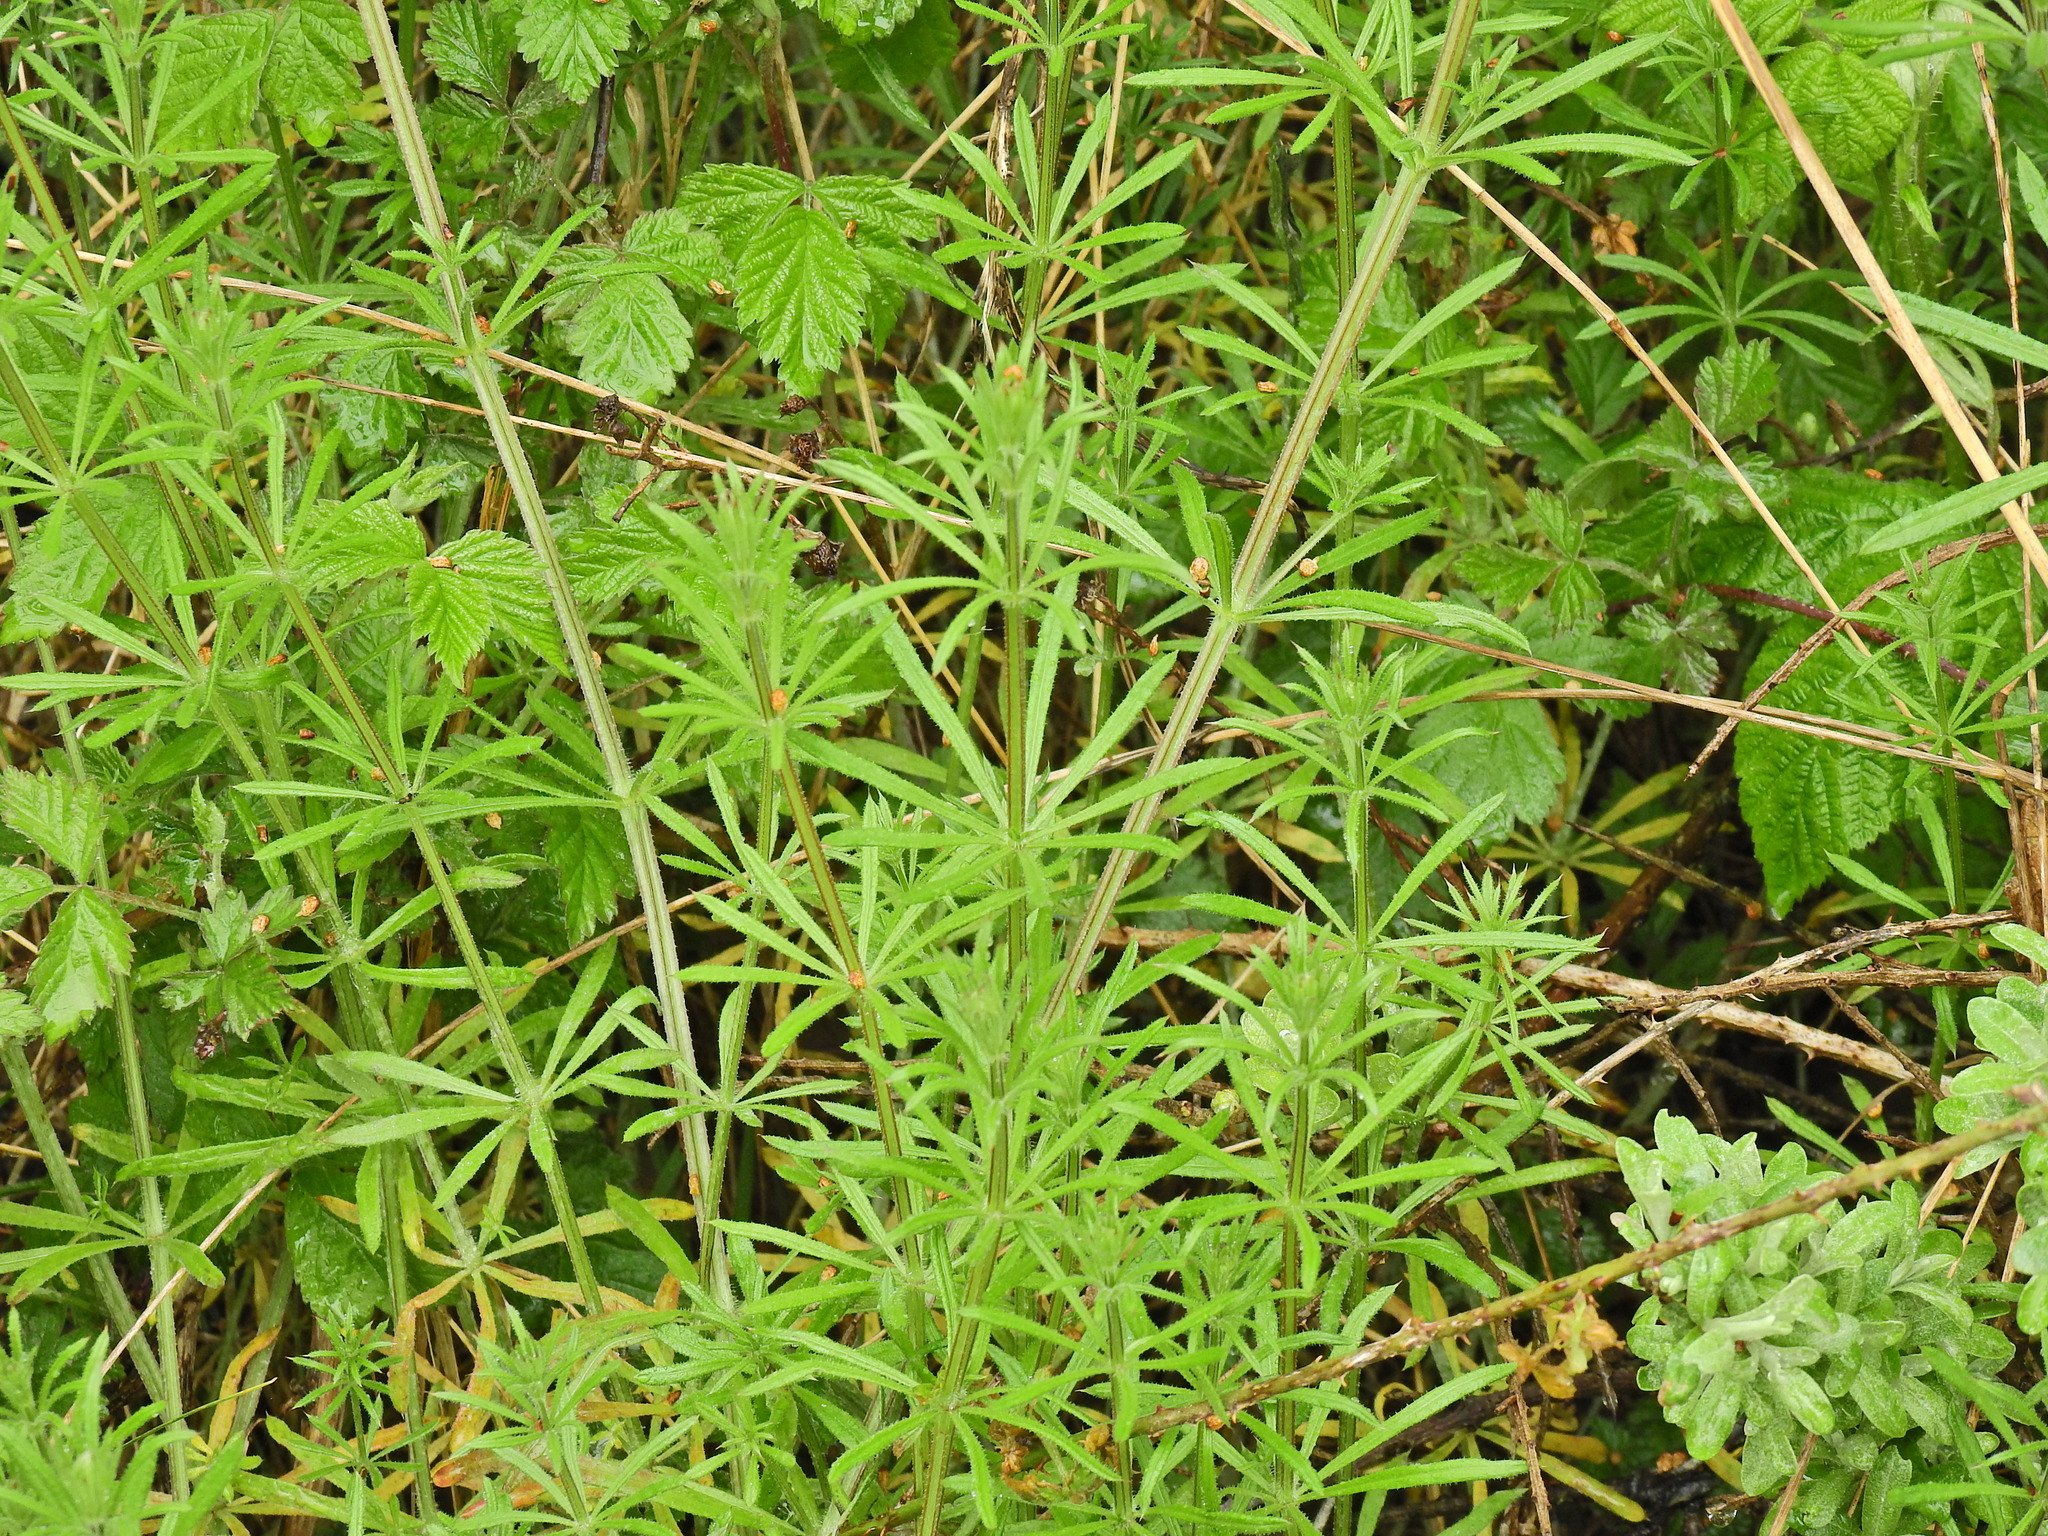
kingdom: Plantae
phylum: Tracheophyta
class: Magnoliopsida
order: Gentianales
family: Rubiaceae
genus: Galium
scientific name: Galium aparine
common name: Cleavers
